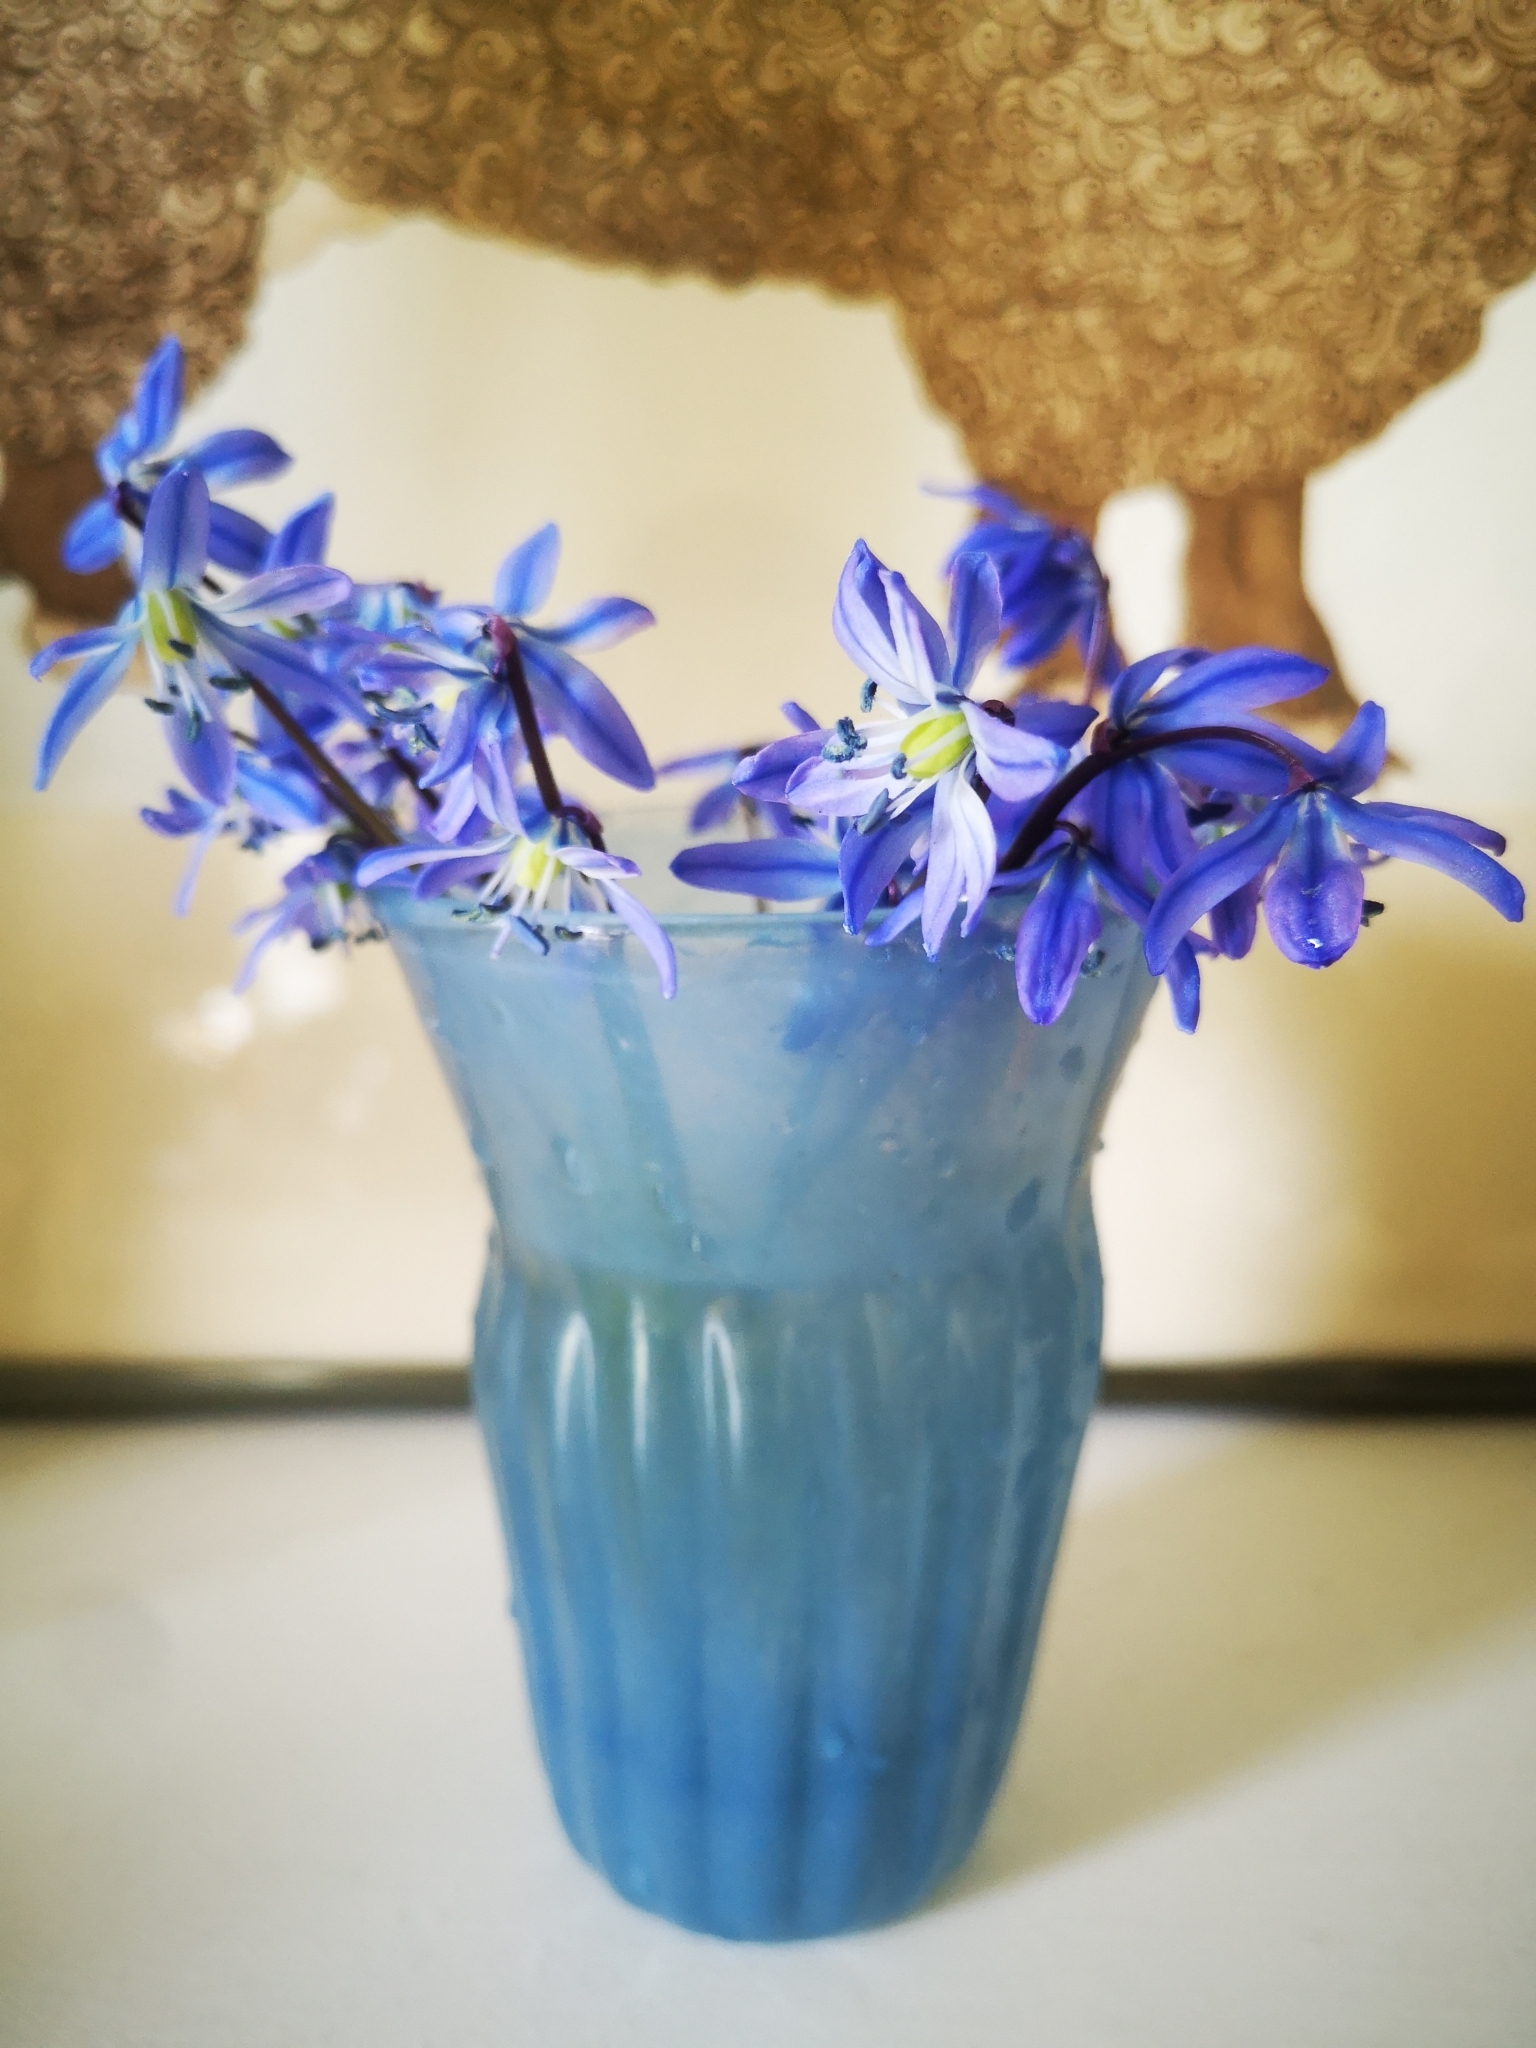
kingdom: Plantae
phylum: Tracheophyta
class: Liliopsida
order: Asparagales
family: Asparagaceae
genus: Scilla
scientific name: Scilla siberica
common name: Siberian squill
